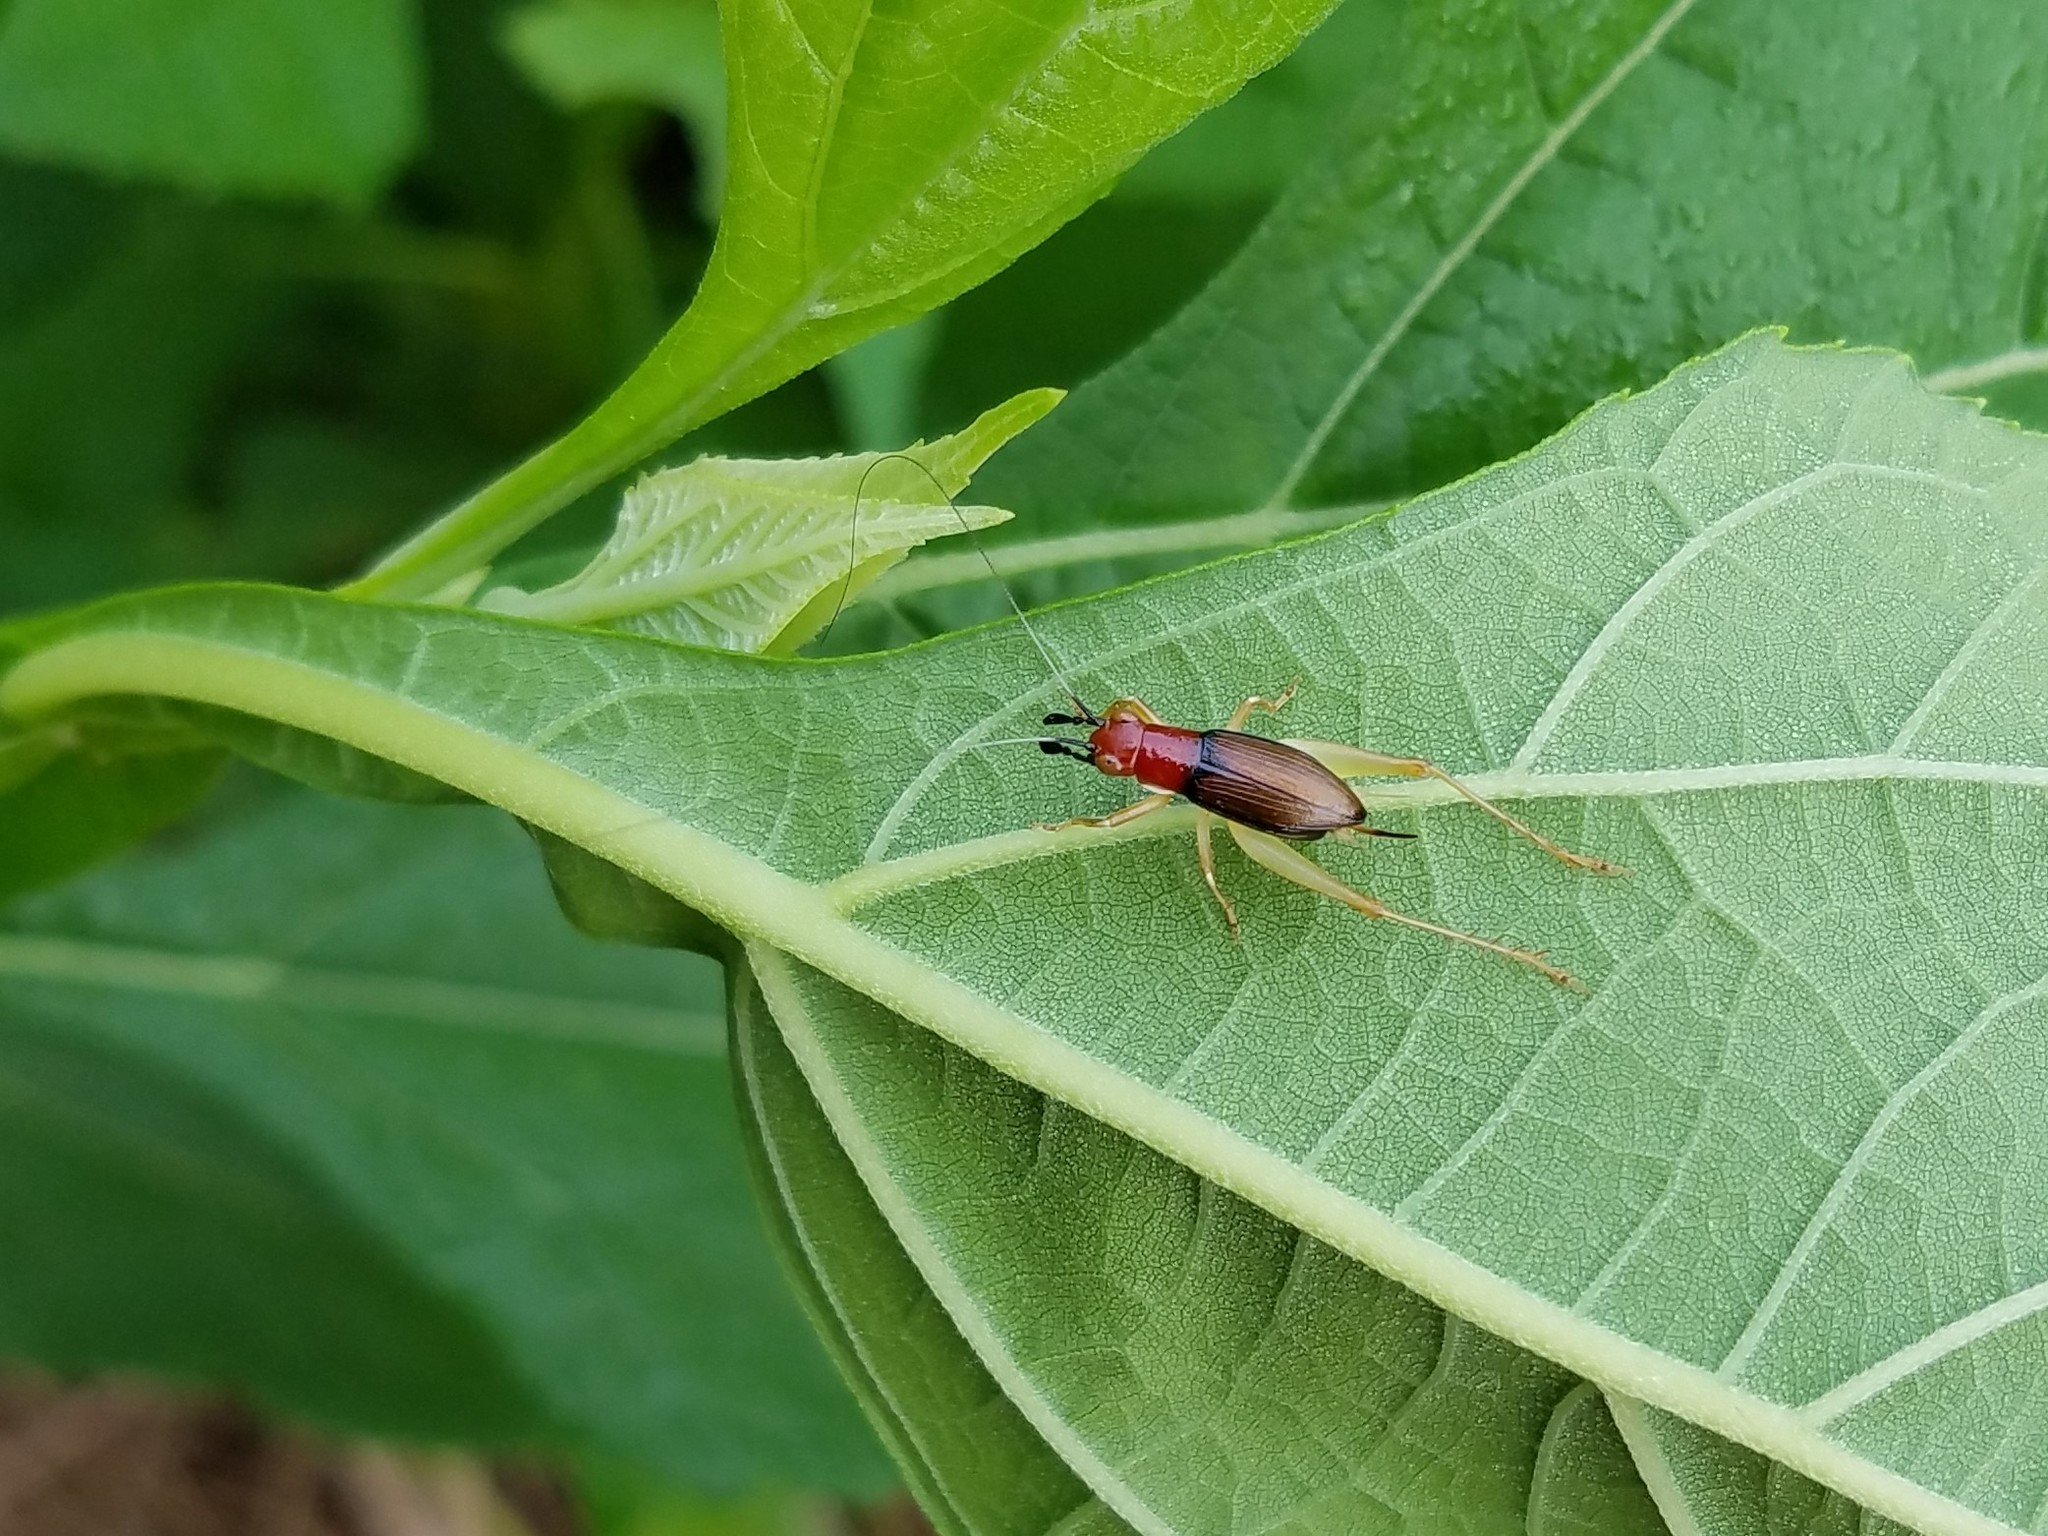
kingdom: Animalia
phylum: Arthropoda
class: Insecta
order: Orthoptera
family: Trigonidiidae
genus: Phyllopalpus
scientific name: Phyllopalpus pulchellus
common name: Handsome trig
